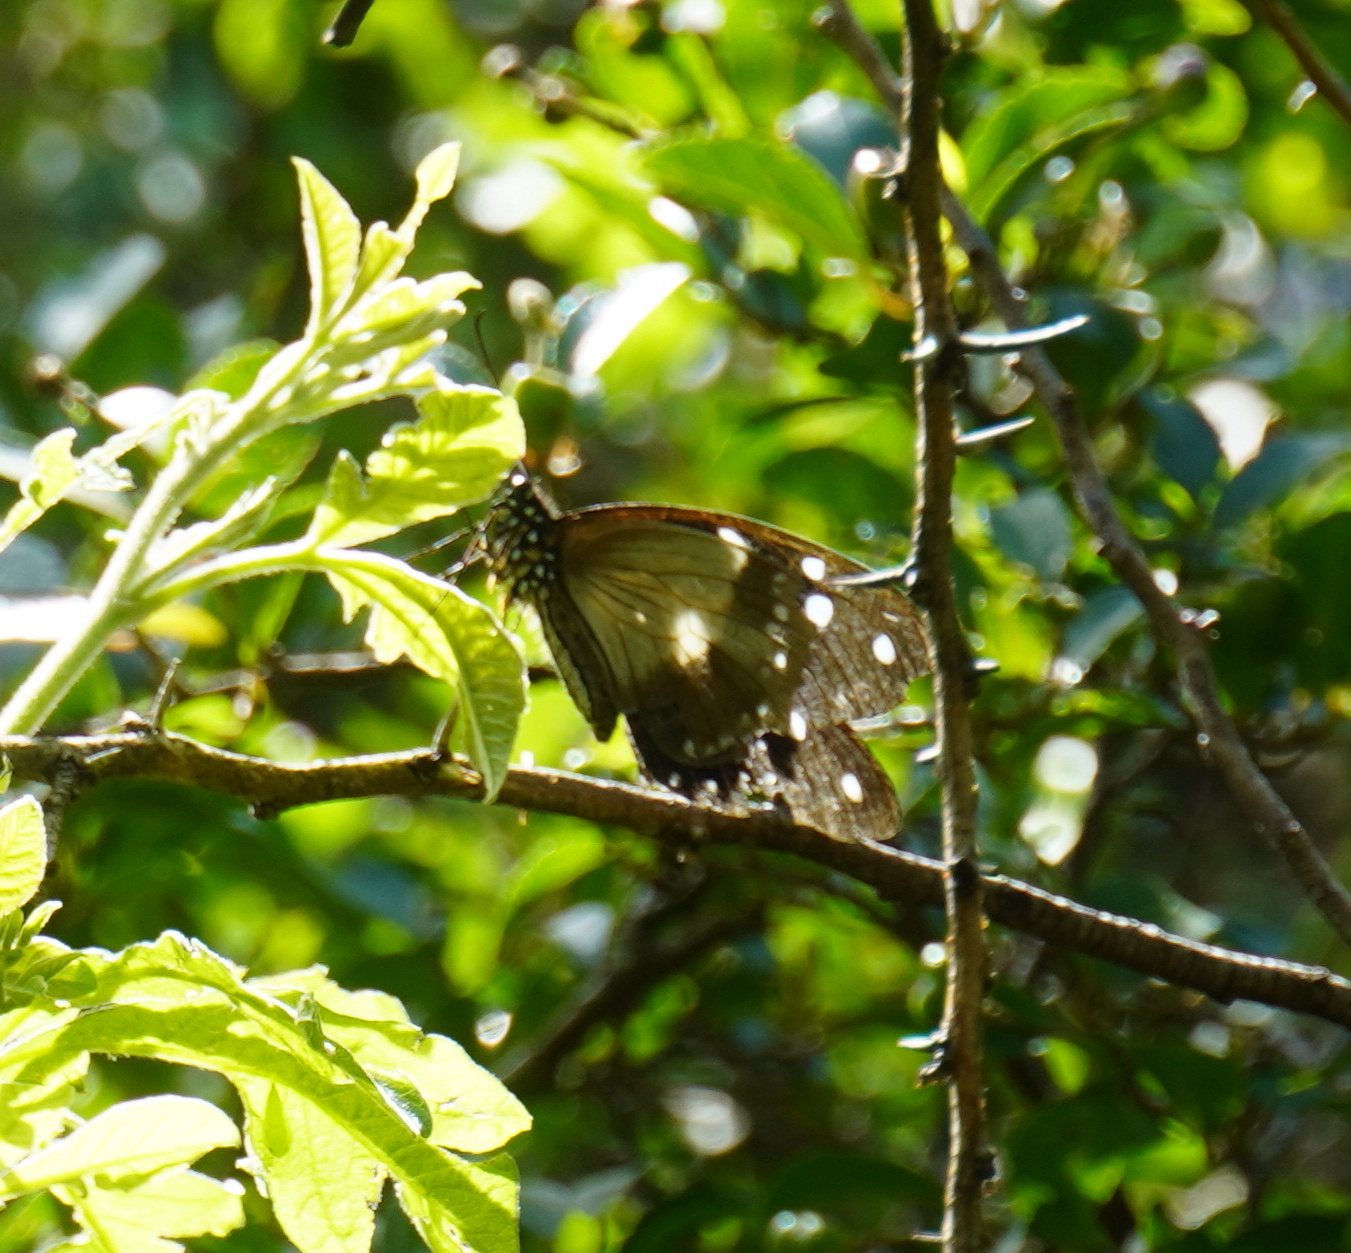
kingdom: Animalia
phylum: Arthropoda
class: Insecta
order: Lepidoptera
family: Papilionidae
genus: Papilio
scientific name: Papilio dardanus
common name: Flying handkerchief
